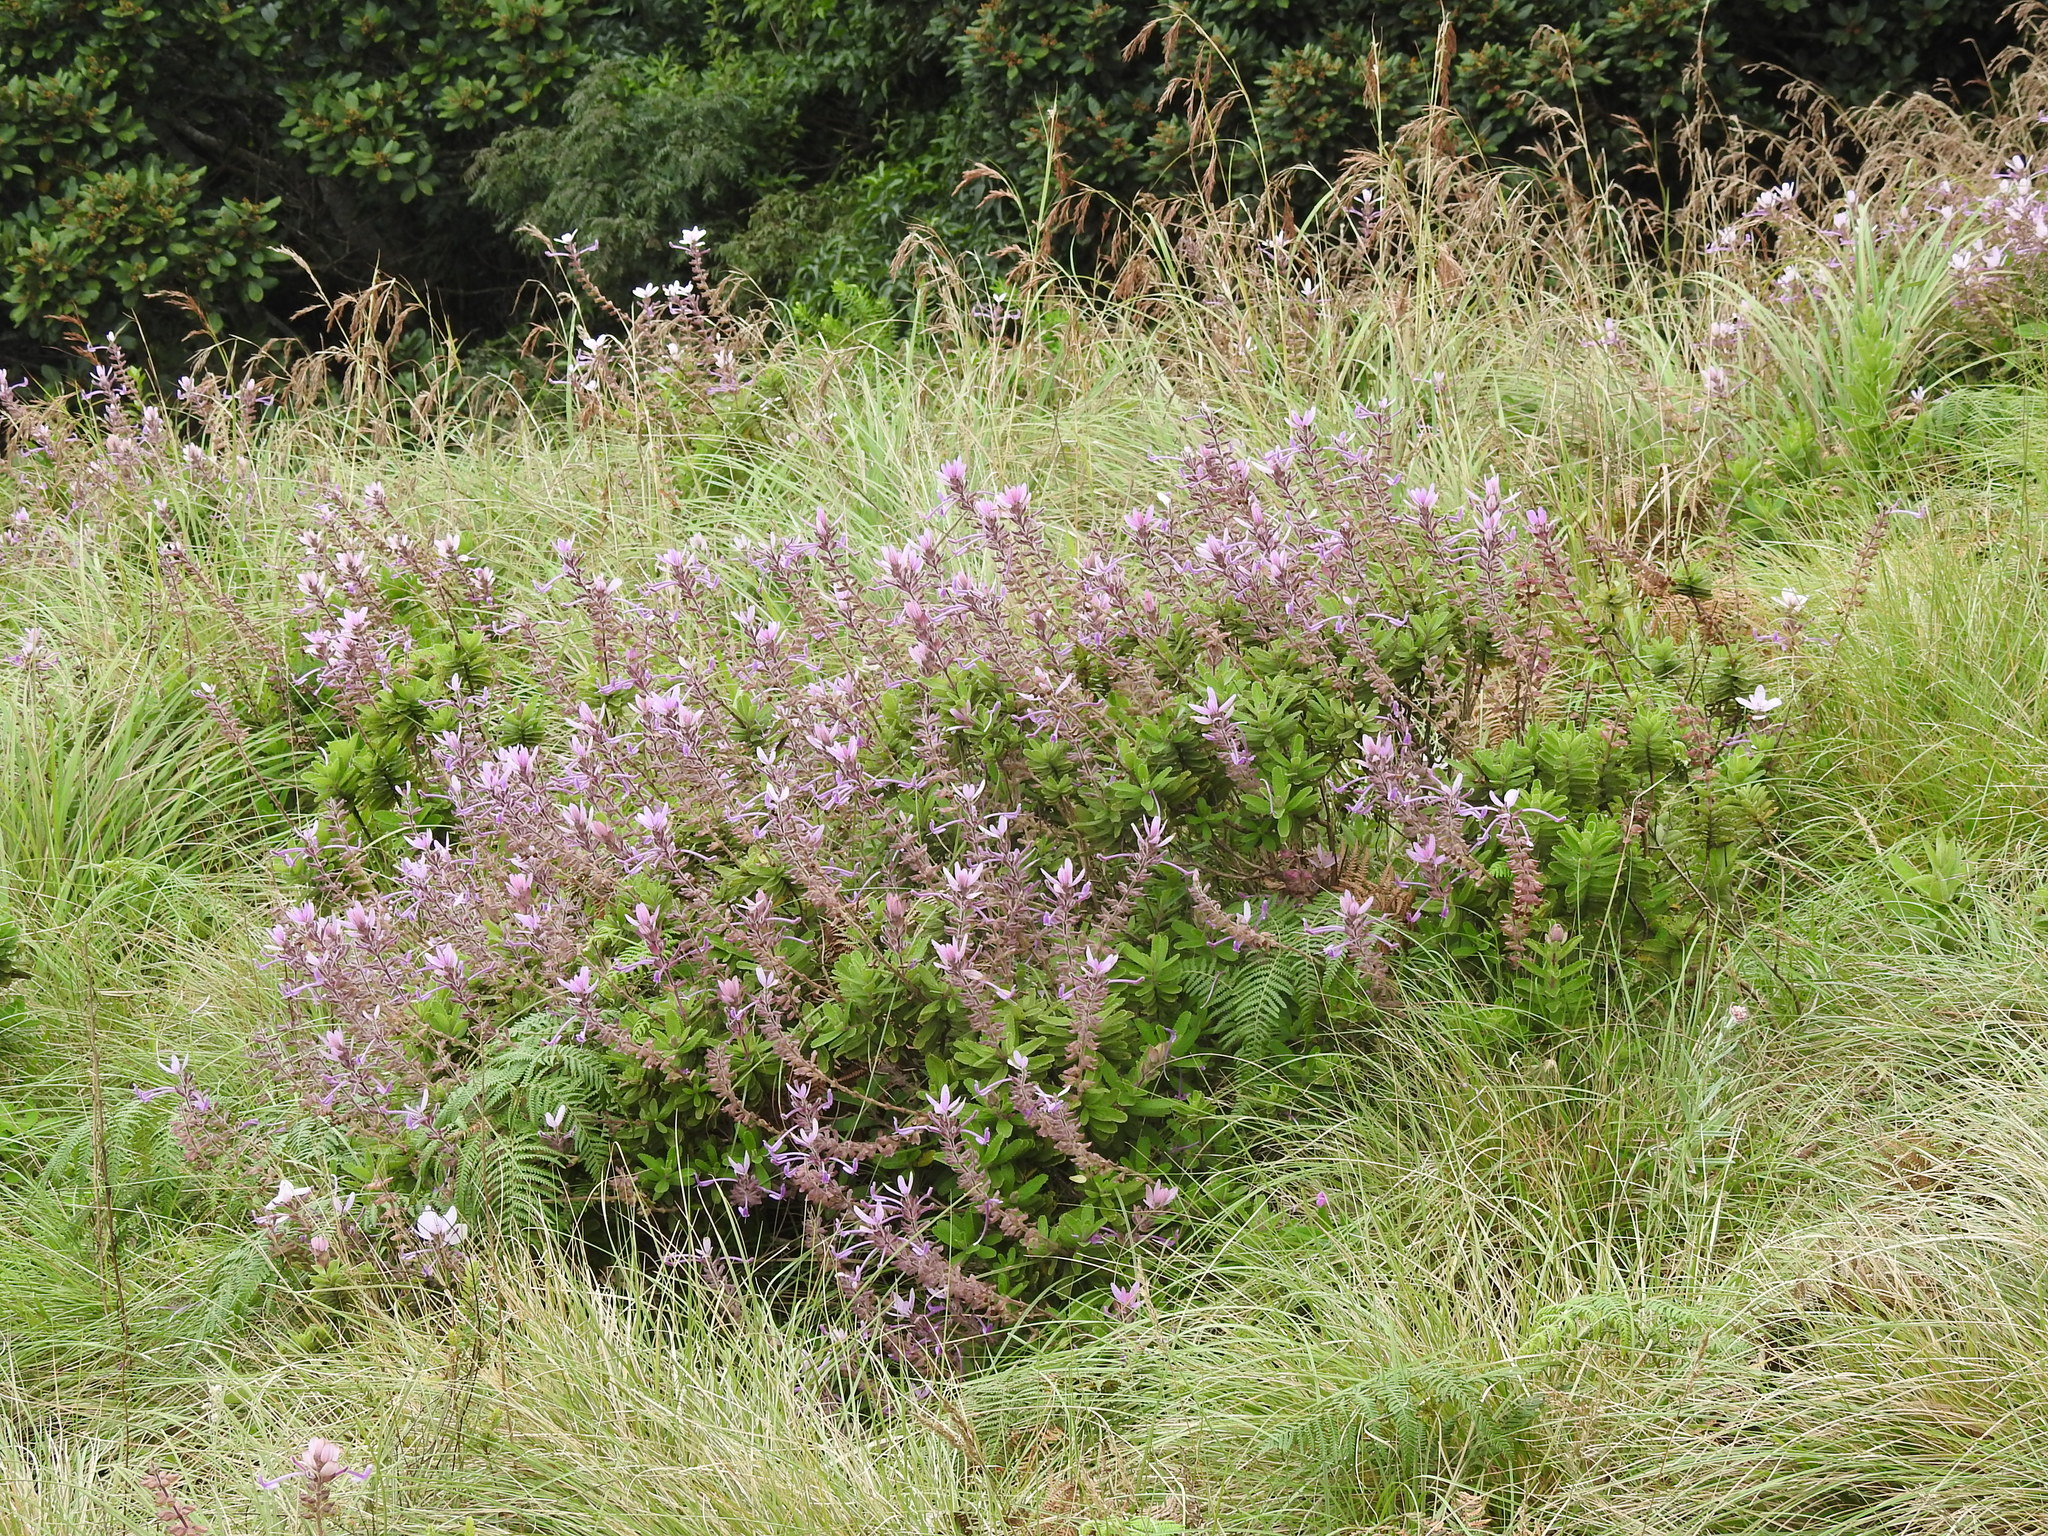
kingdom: Plantae
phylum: Tracheophyta
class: Magnoliopsida
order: Lamiales
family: Lamiaceae
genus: Syncolostemon
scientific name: Syncolostemon comosus
